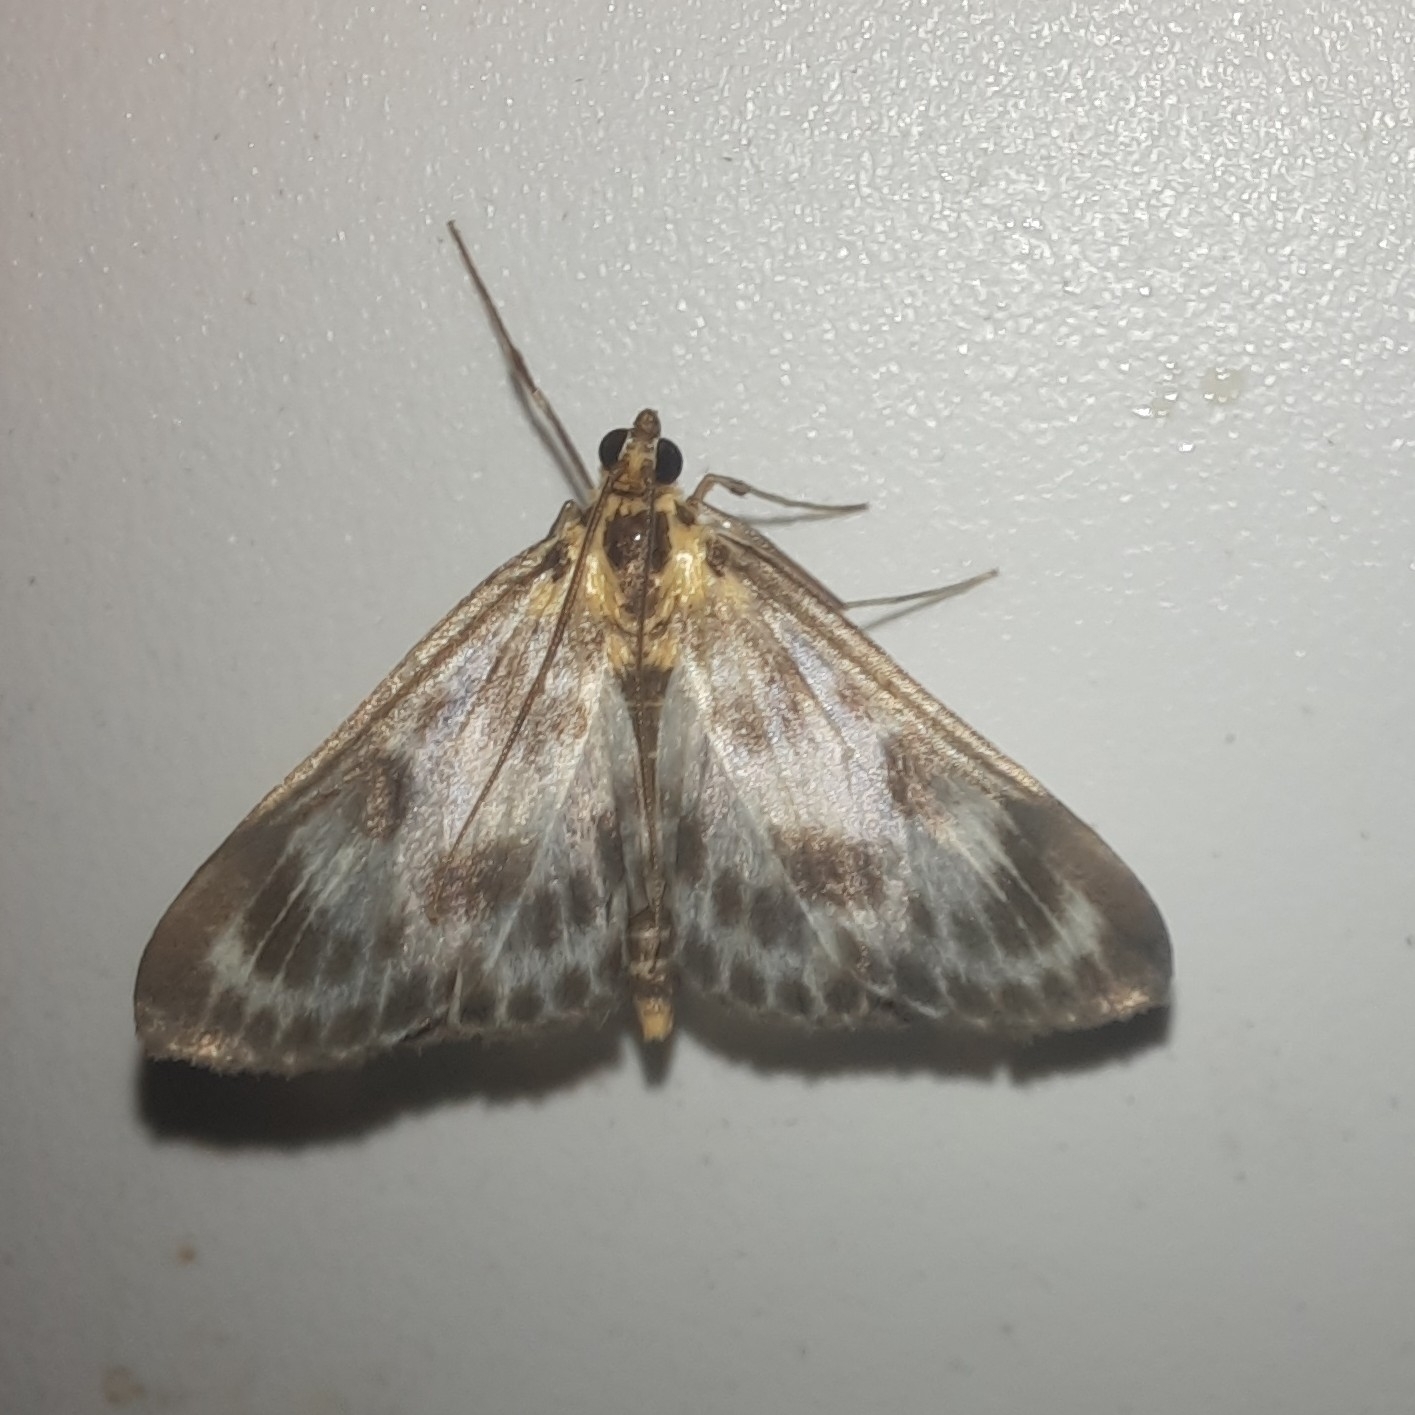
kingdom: Animalia
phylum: Arthropoda
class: Insecta
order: Lepidoptera
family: Crambidae
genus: Anania
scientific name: Anania hortulata
